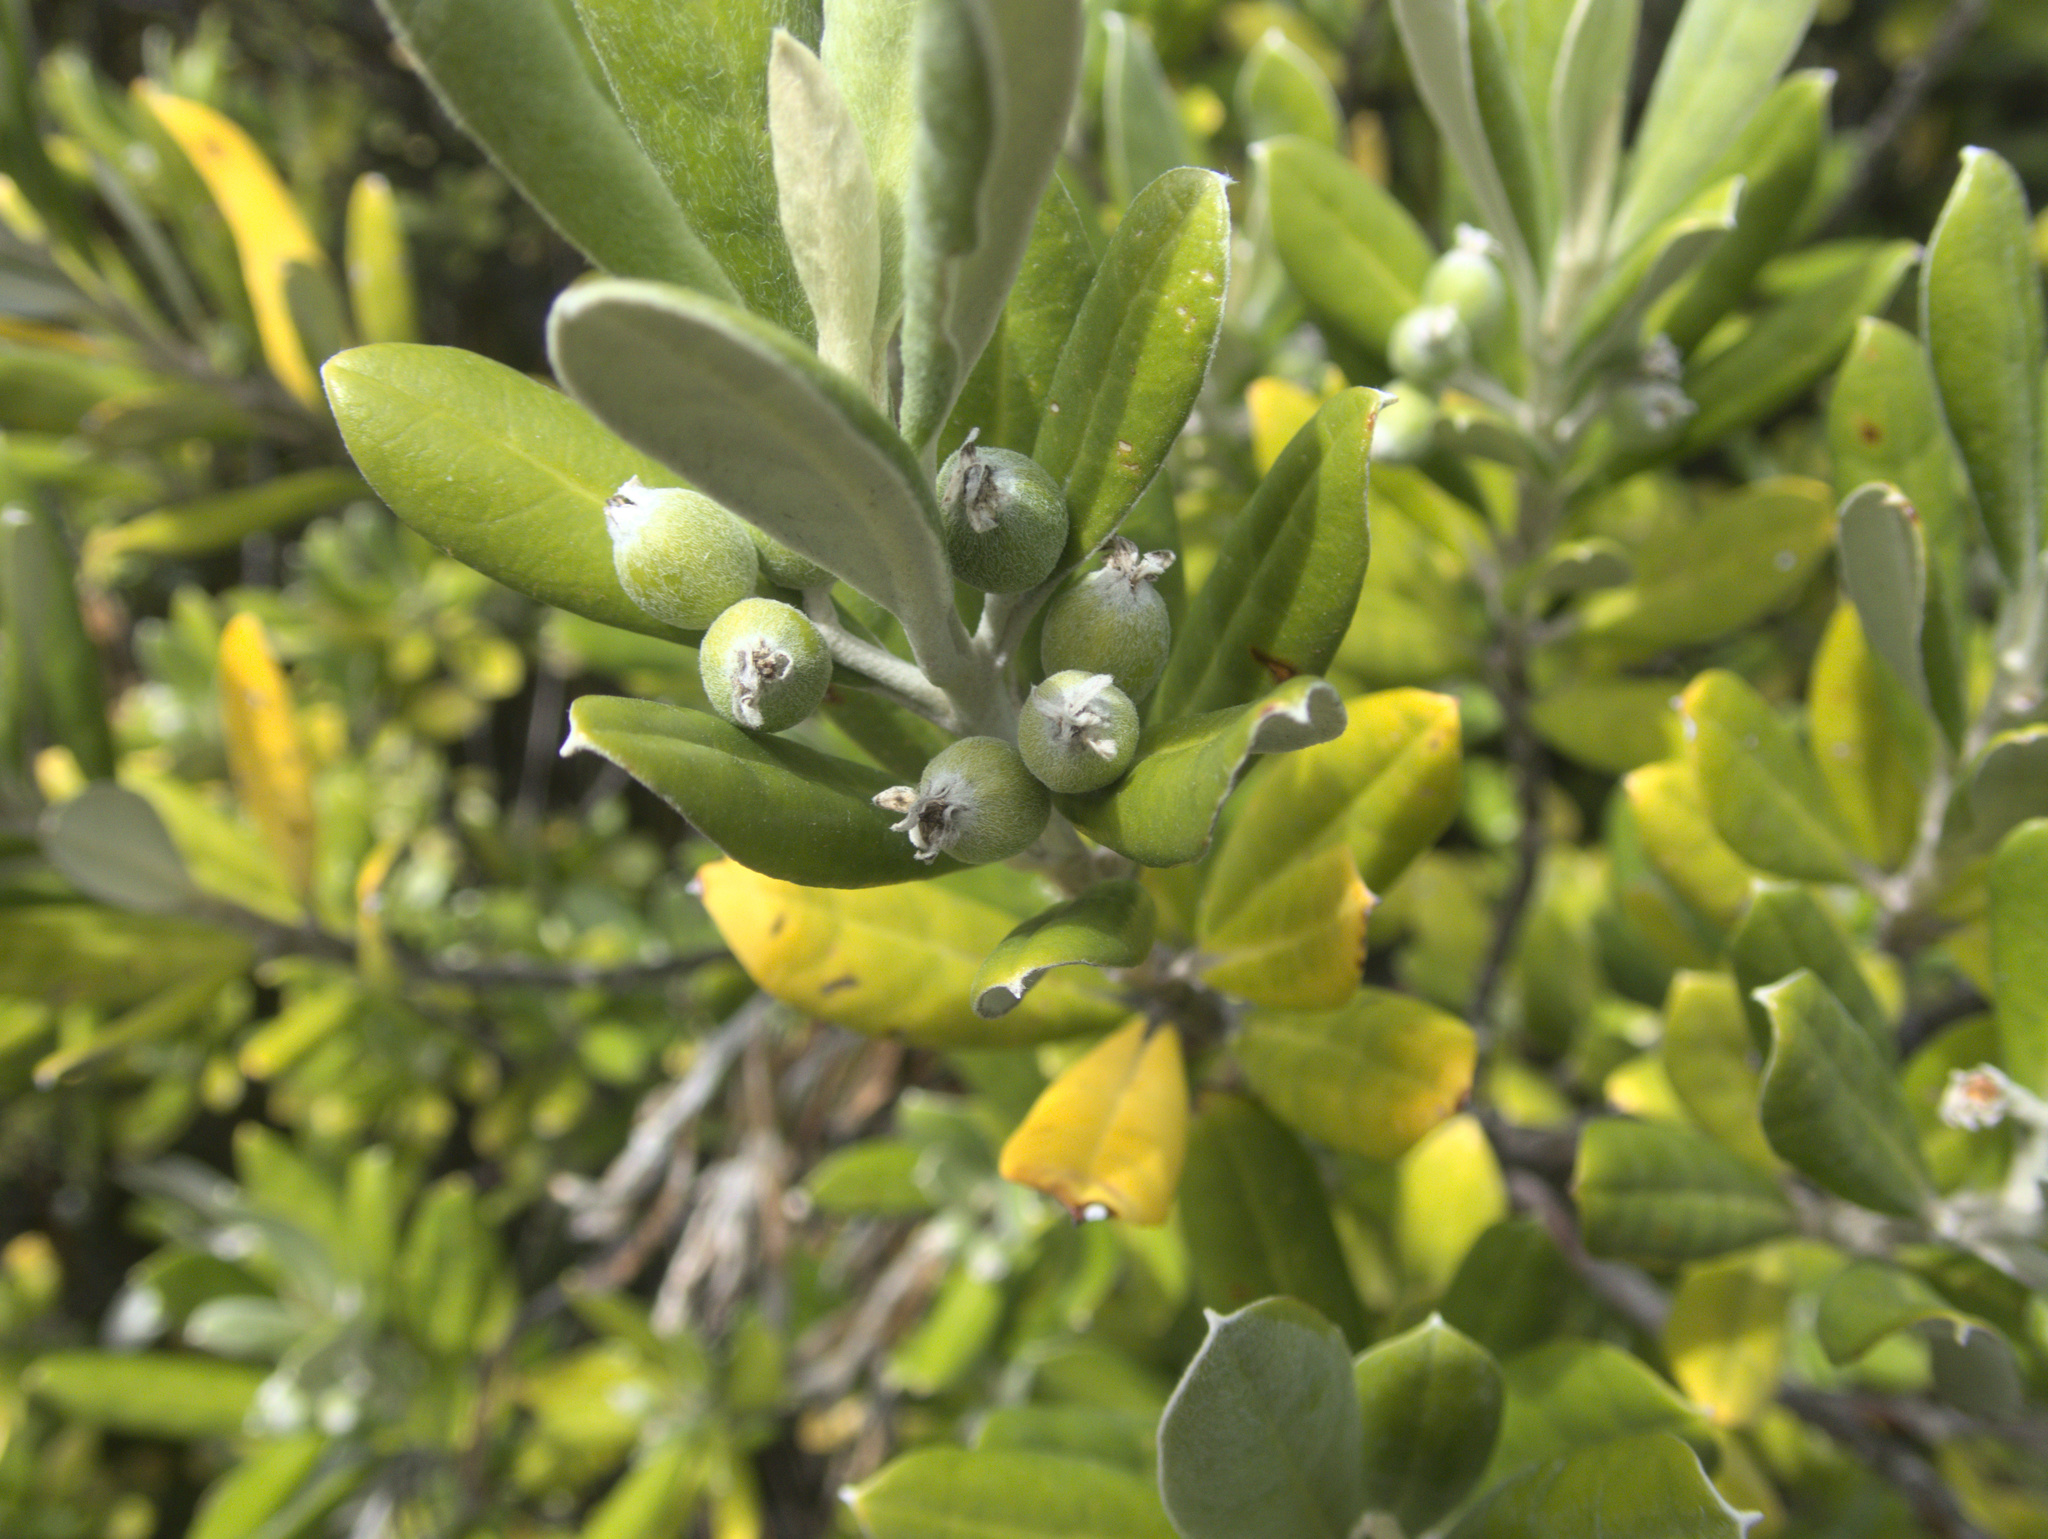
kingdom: Plantae
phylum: Tracheophyta
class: Magnoliopsida
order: Asterales
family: Argophyllaceae
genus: Corokia
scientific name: Corokia macrocarpa
